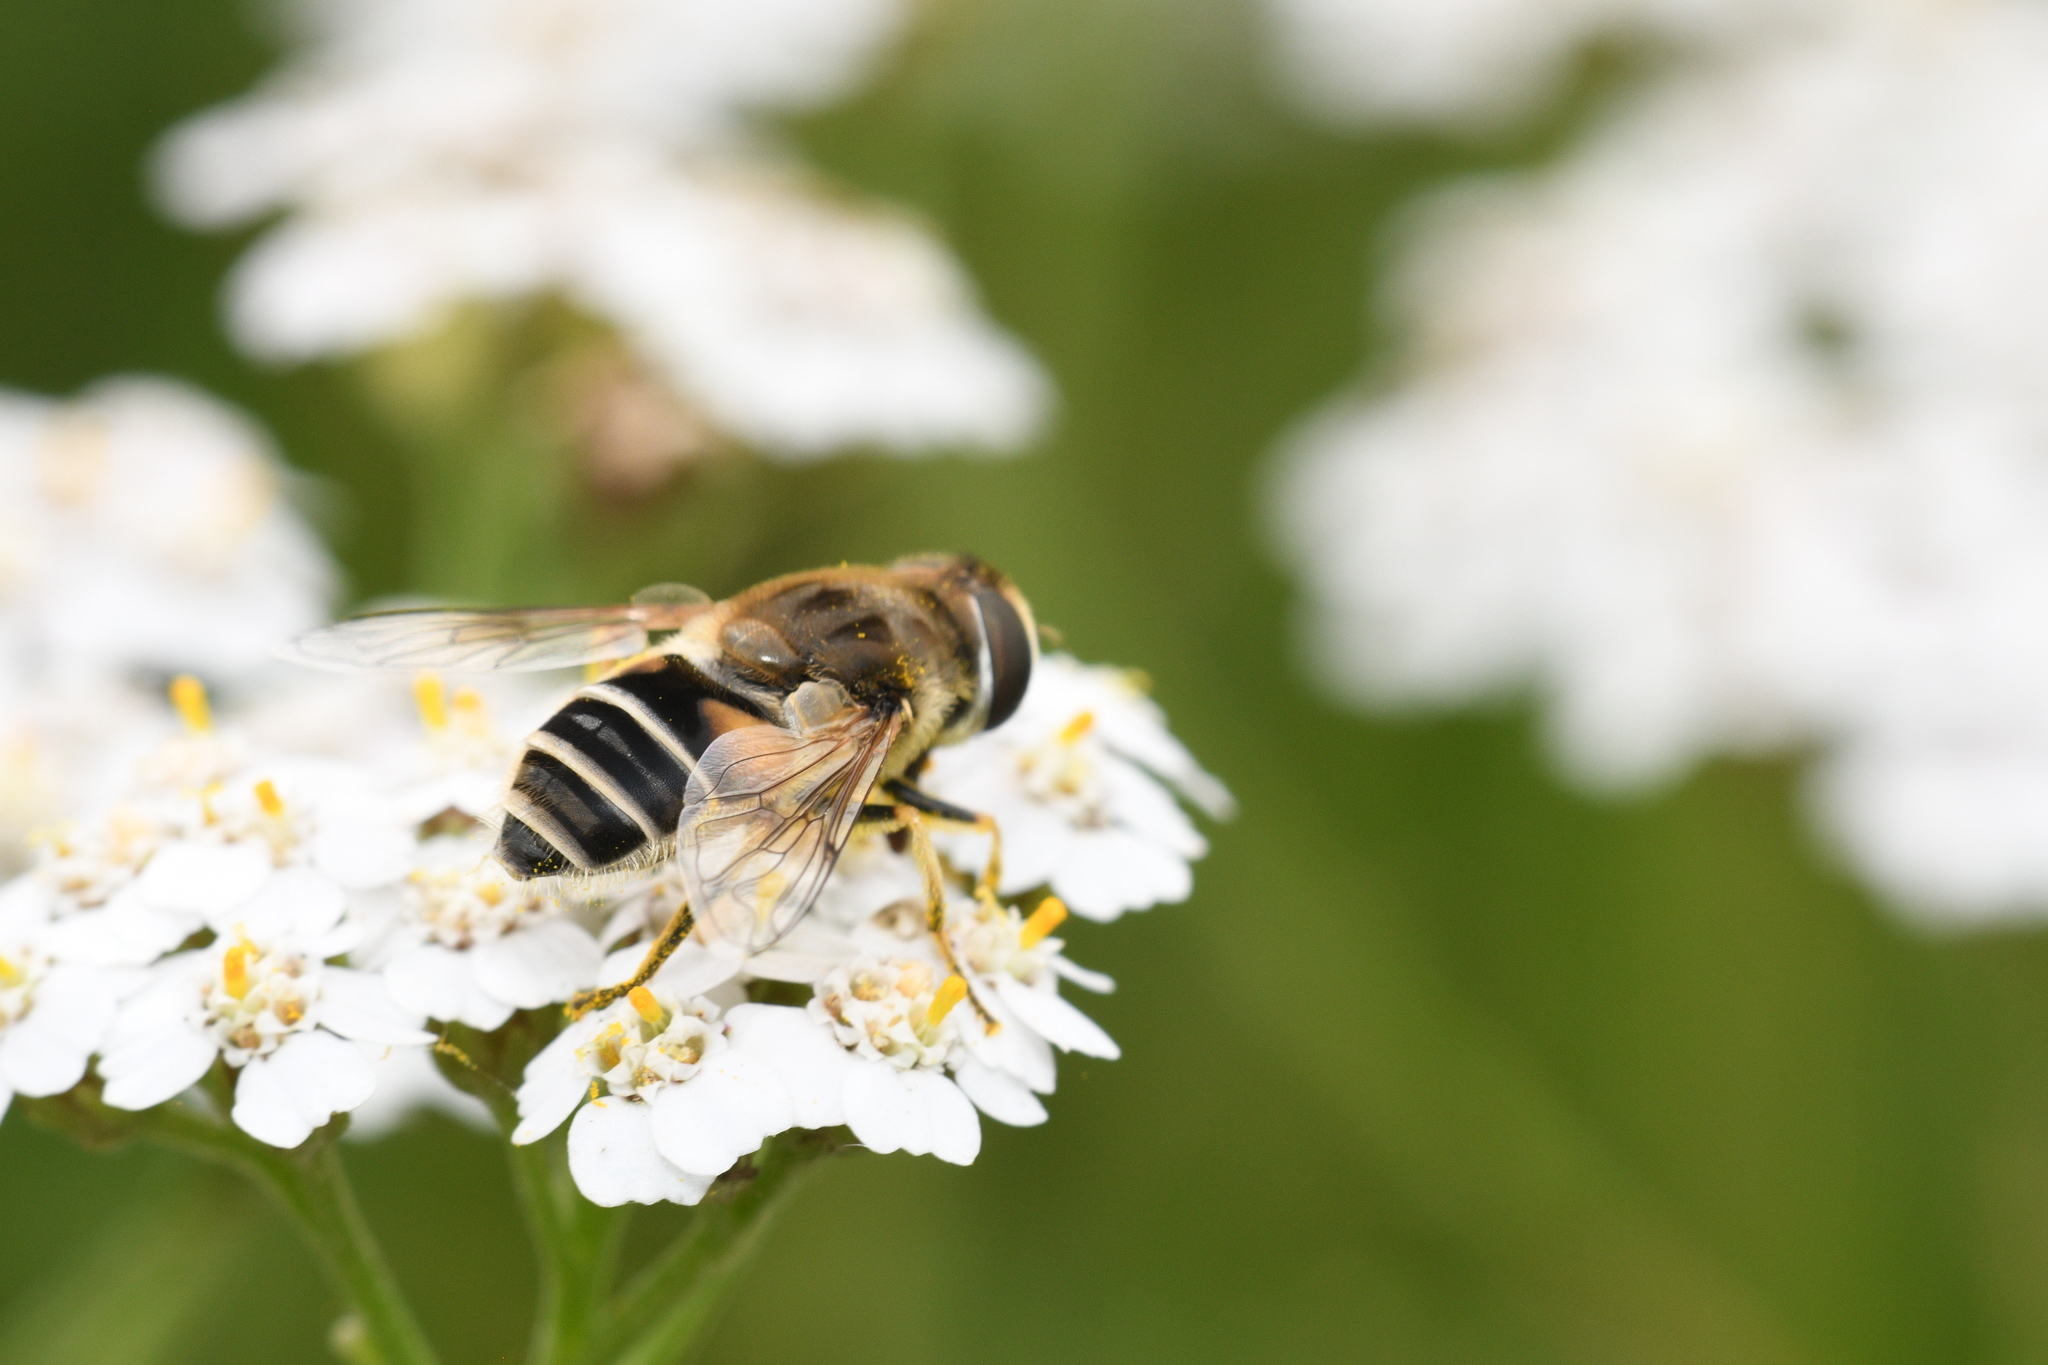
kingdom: Animalia
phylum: Arthropoda
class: Insecta
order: Diptera
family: Syrphidae
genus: Eristalis
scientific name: Eristalis arbustorum
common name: Hover fly
